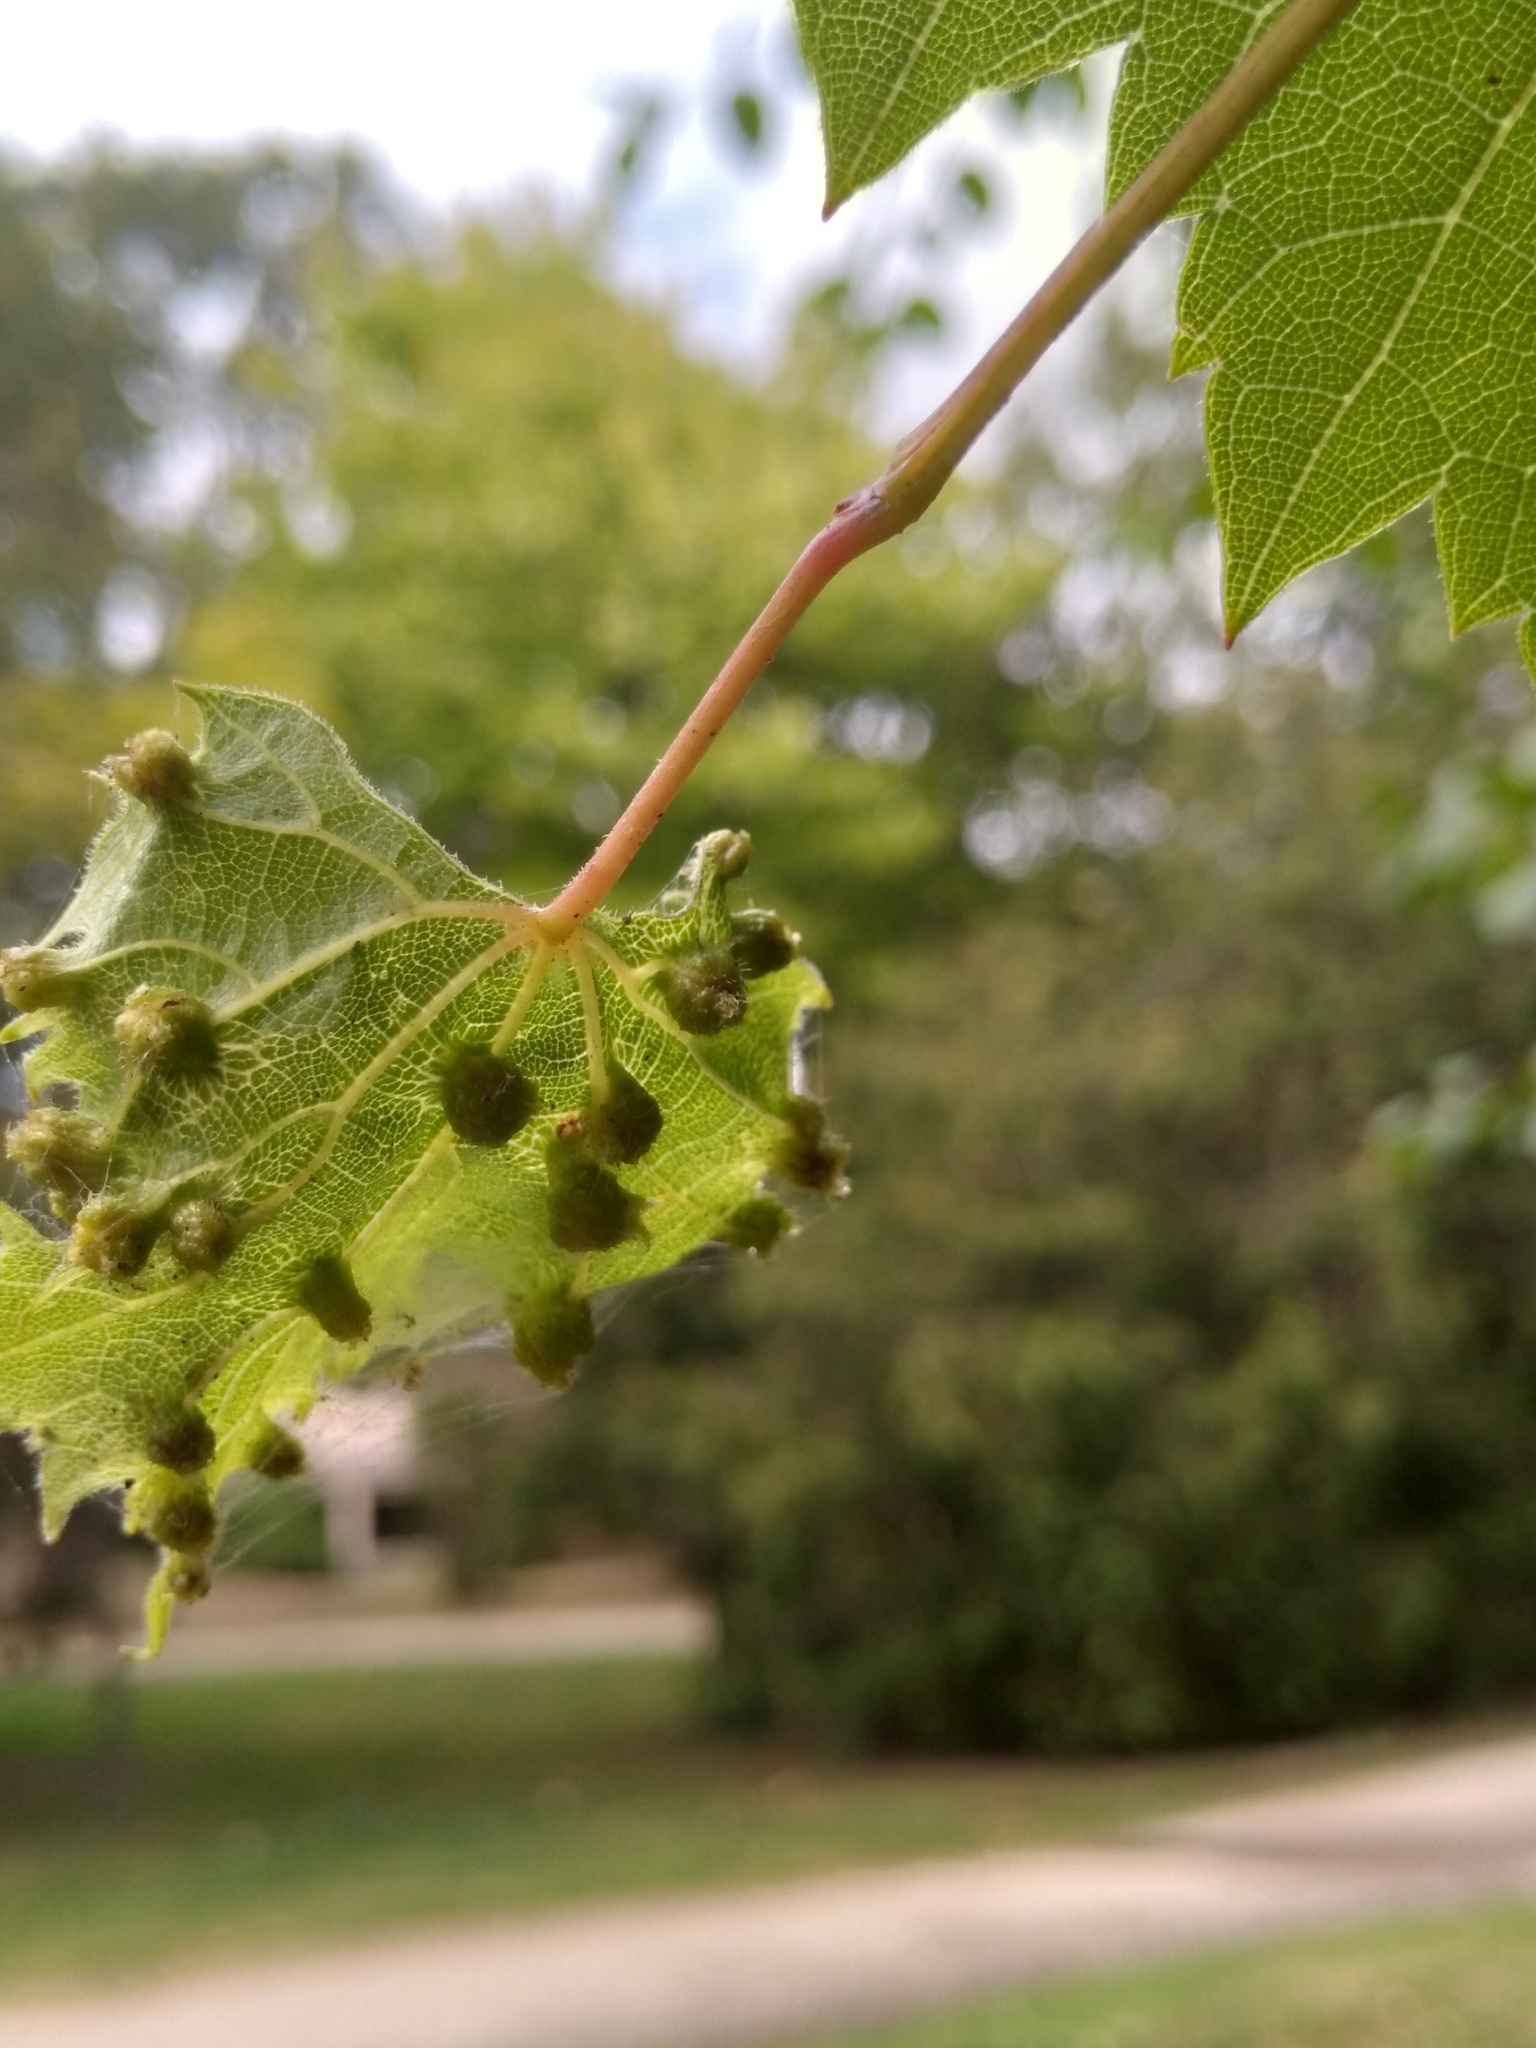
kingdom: Animalia
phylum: Arthropoda
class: Insecta
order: Hemiptera
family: Phylloxeridae
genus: Daktulosphaira
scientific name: Daktulosphaira vitifoliae
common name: Grape phylloxera
